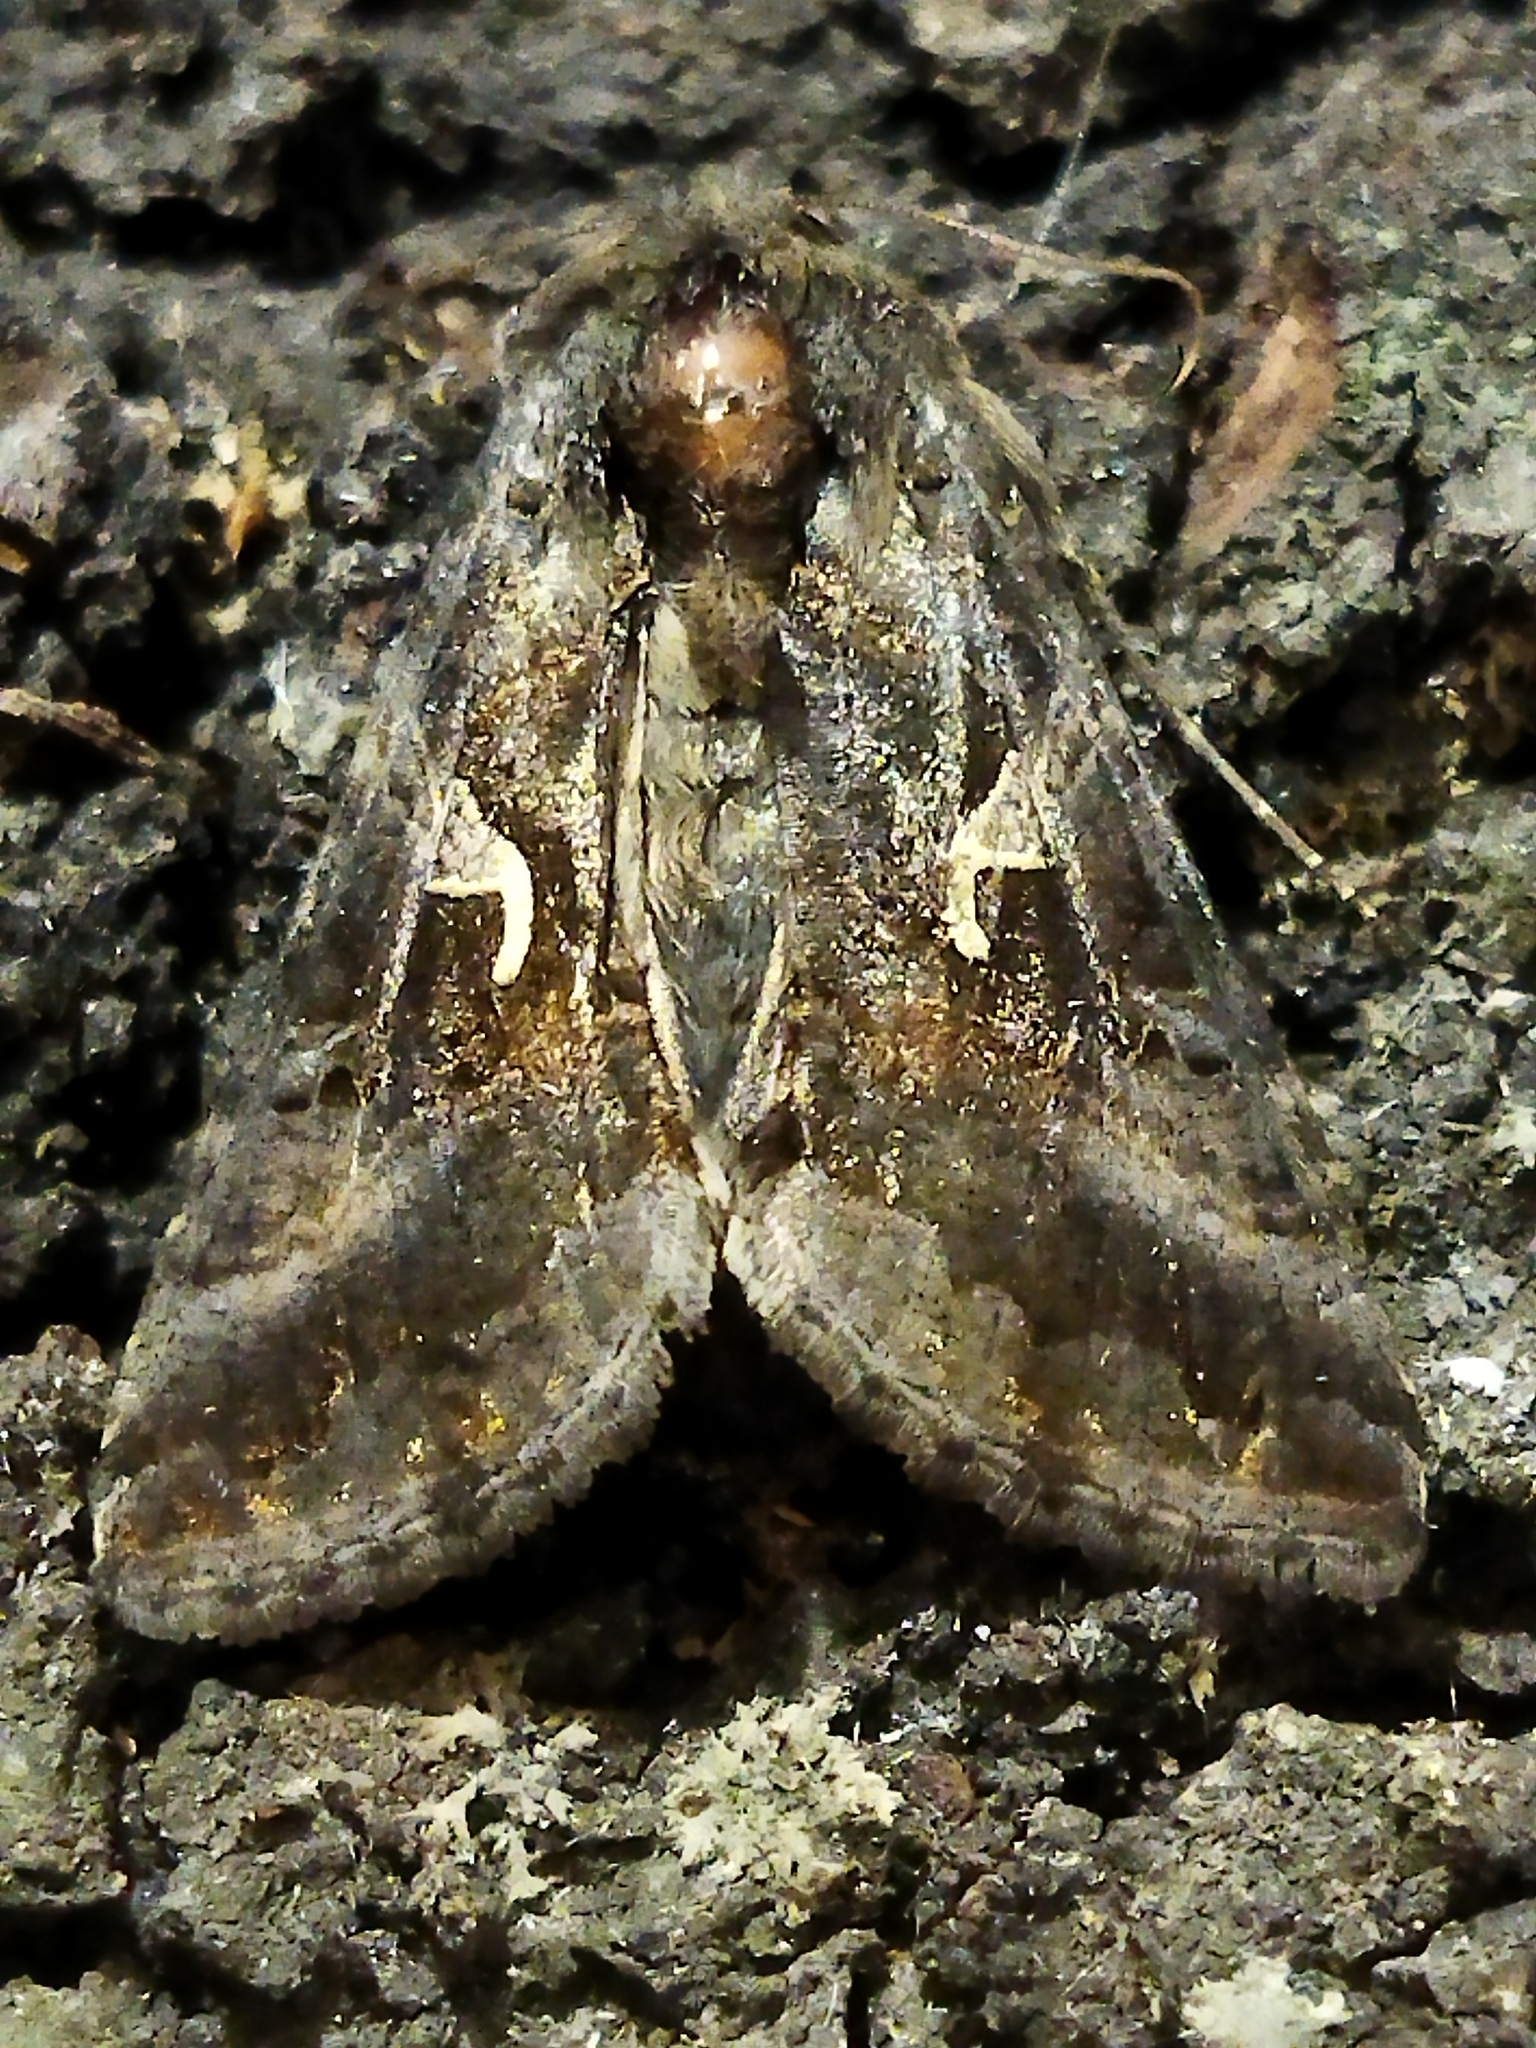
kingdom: Animalia
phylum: Arthropoda
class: Insecta
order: Lepidoptera
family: Noctuidae
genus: Autographa
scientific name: Autographa gamma
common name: Silver y
